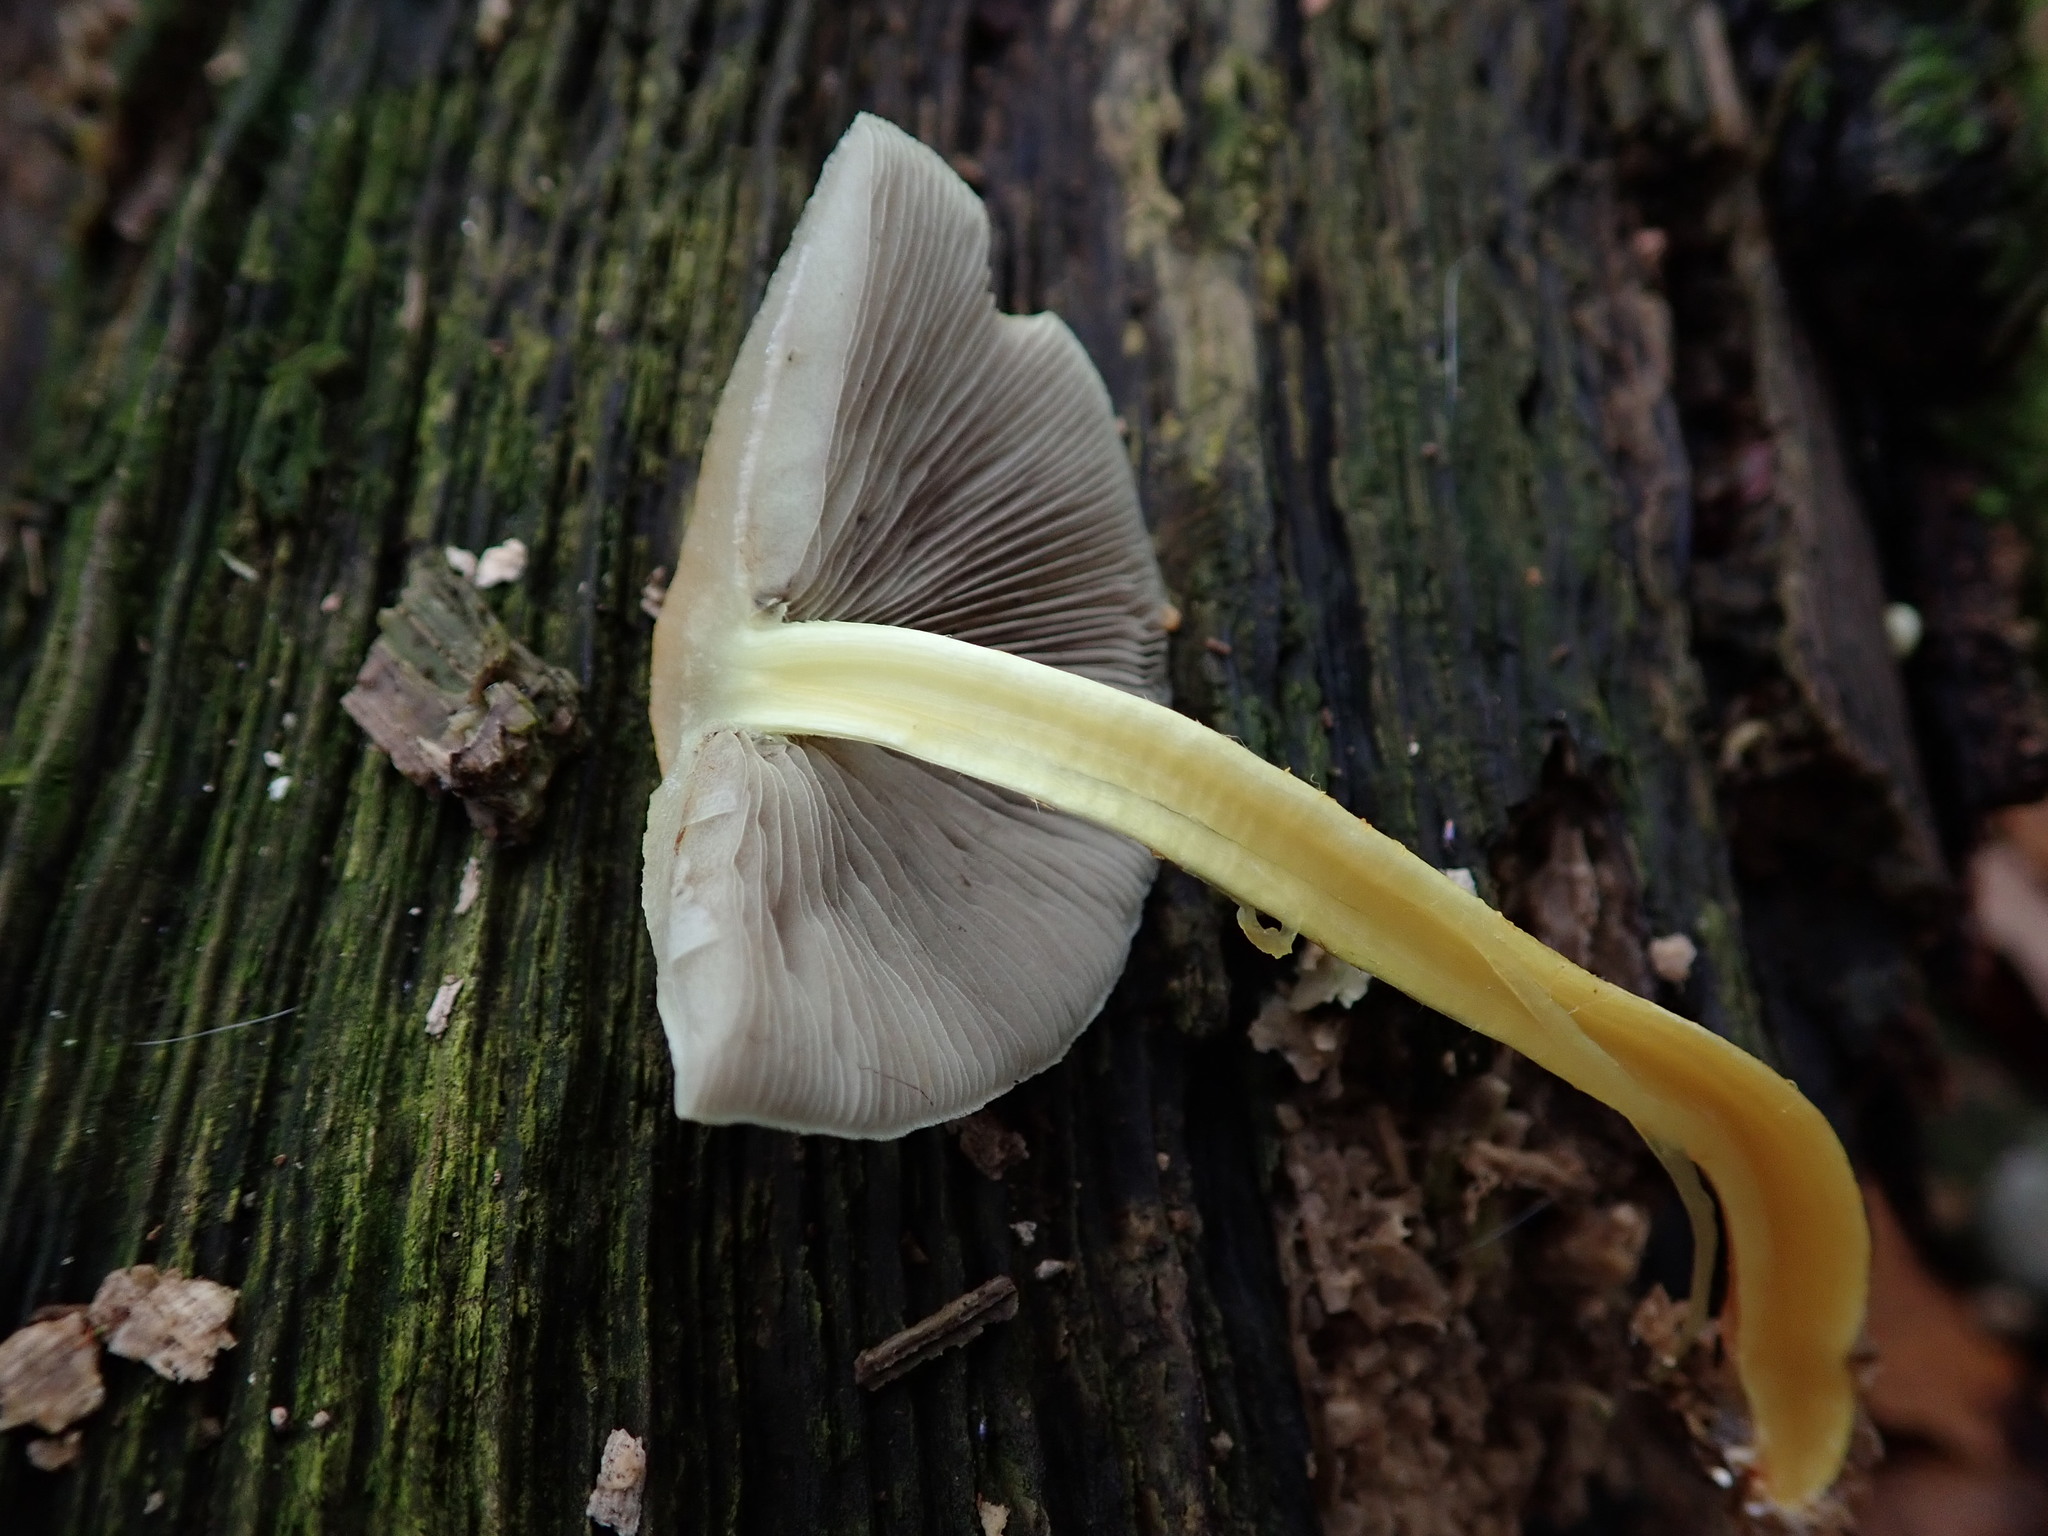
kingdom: Fungi
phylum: Basidiomycota
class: Agaricomycetes
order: Agaricales
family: Strophariaceae
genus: Hypholoma
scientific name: Hypholoma fasciculare
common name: Sulphur tuft
